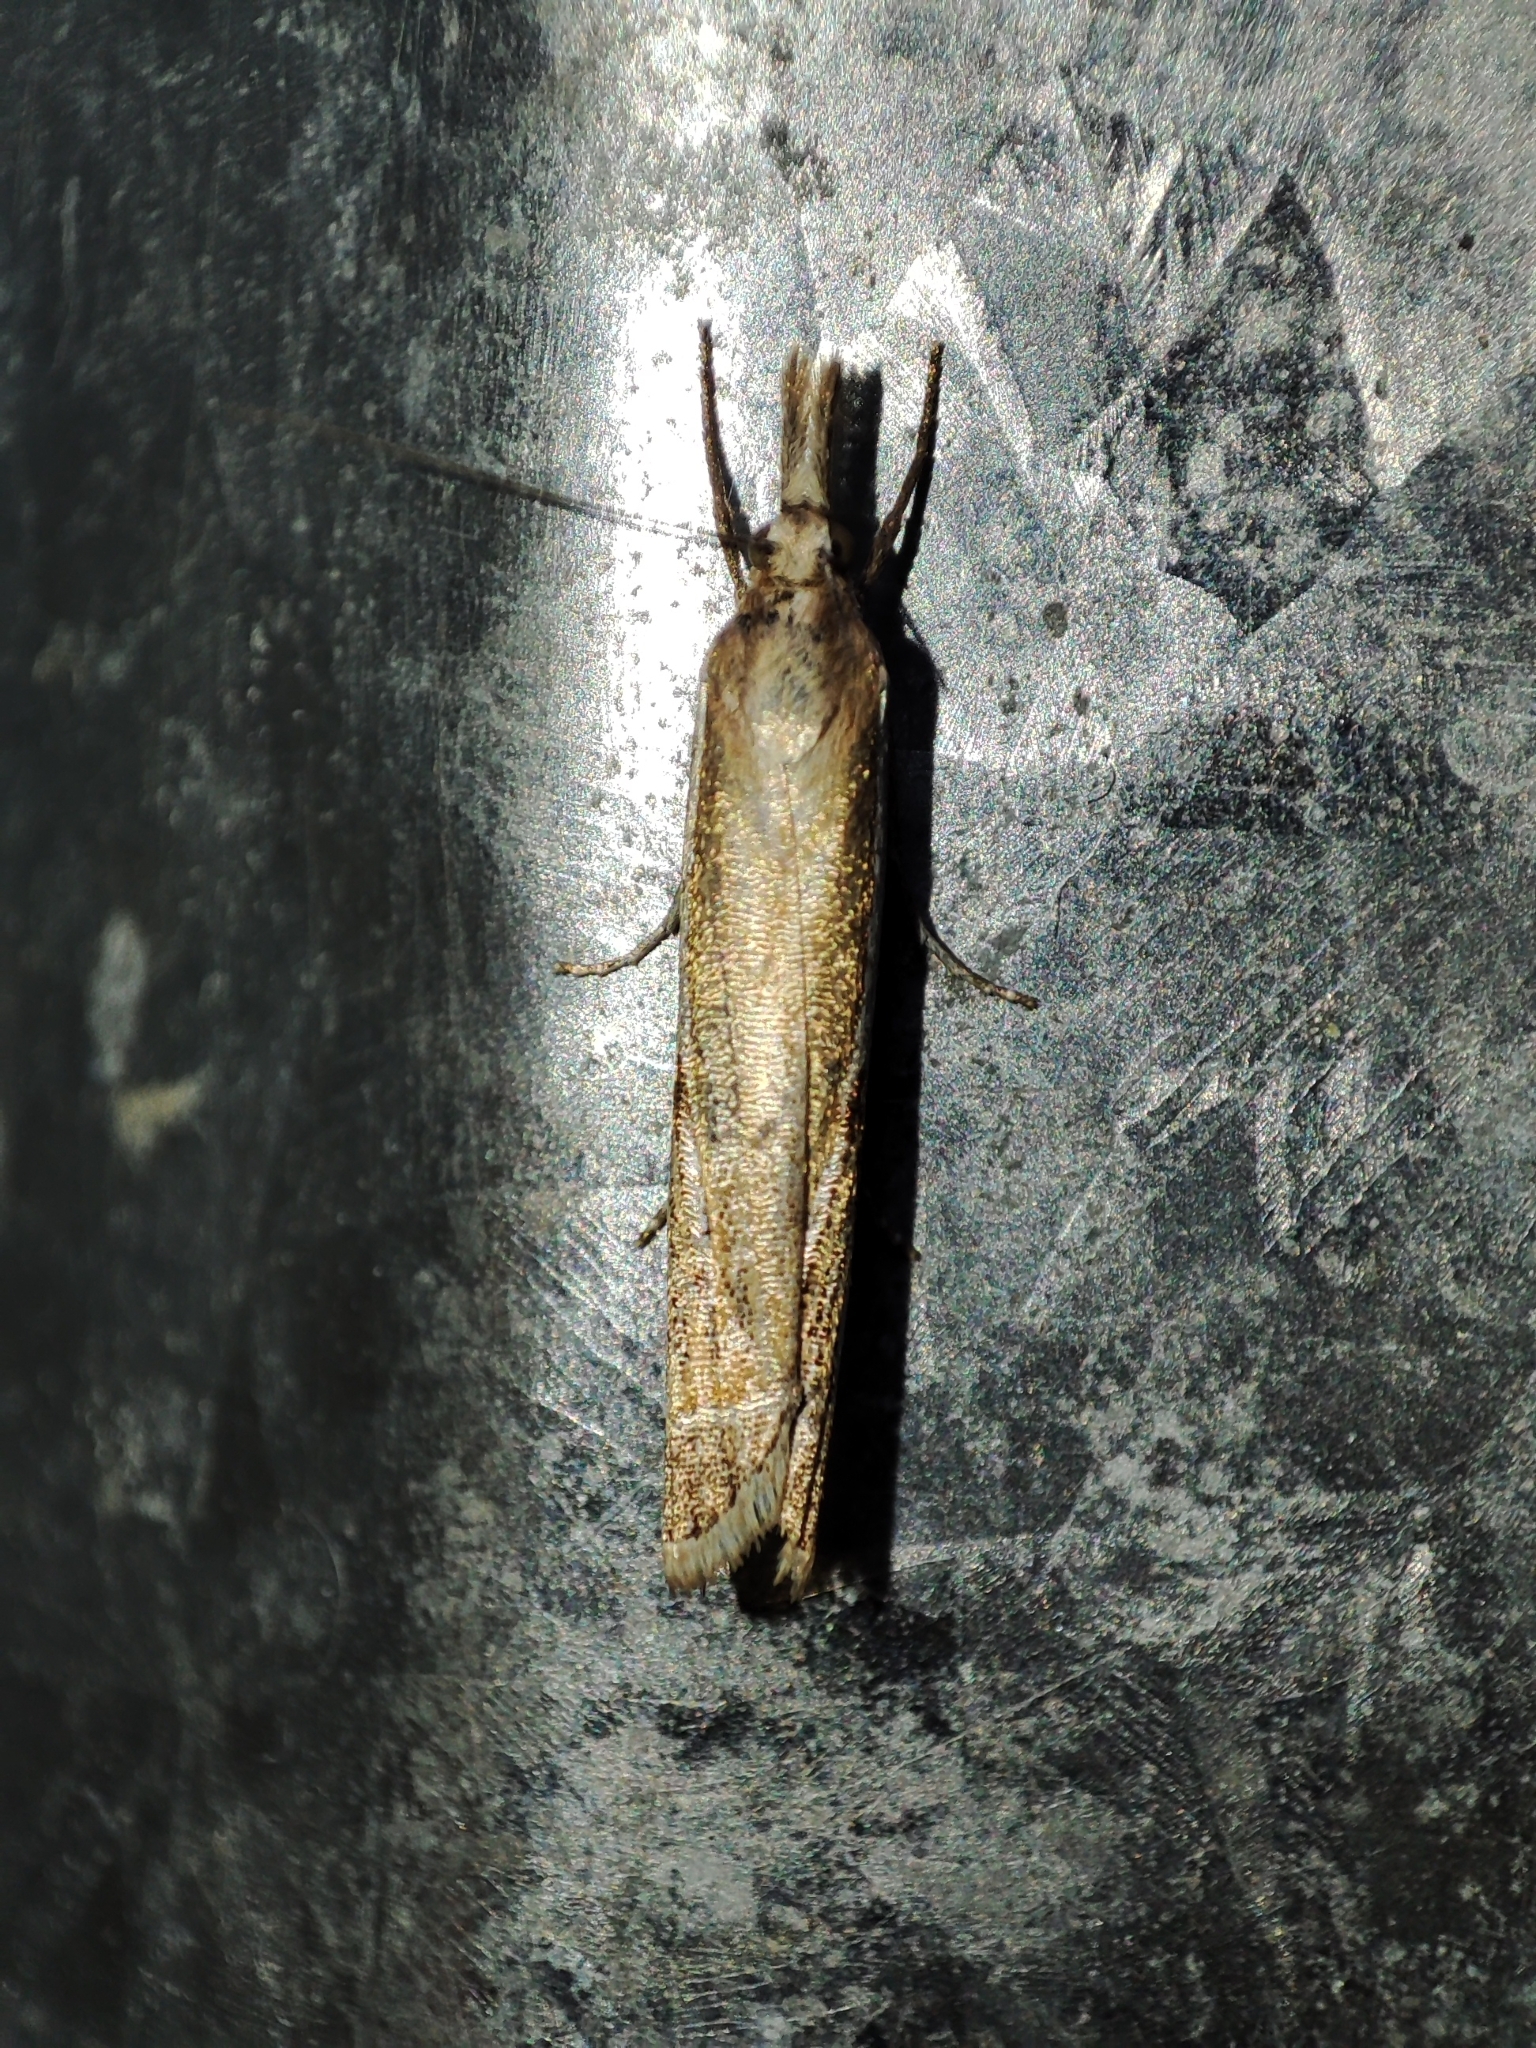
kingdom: Animalia
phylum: Arthropoda
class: Insecta
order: Lepidoptera
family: Crambidae
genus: Crambus
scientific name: Crambus pratella
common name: Scarce grass-veneer
